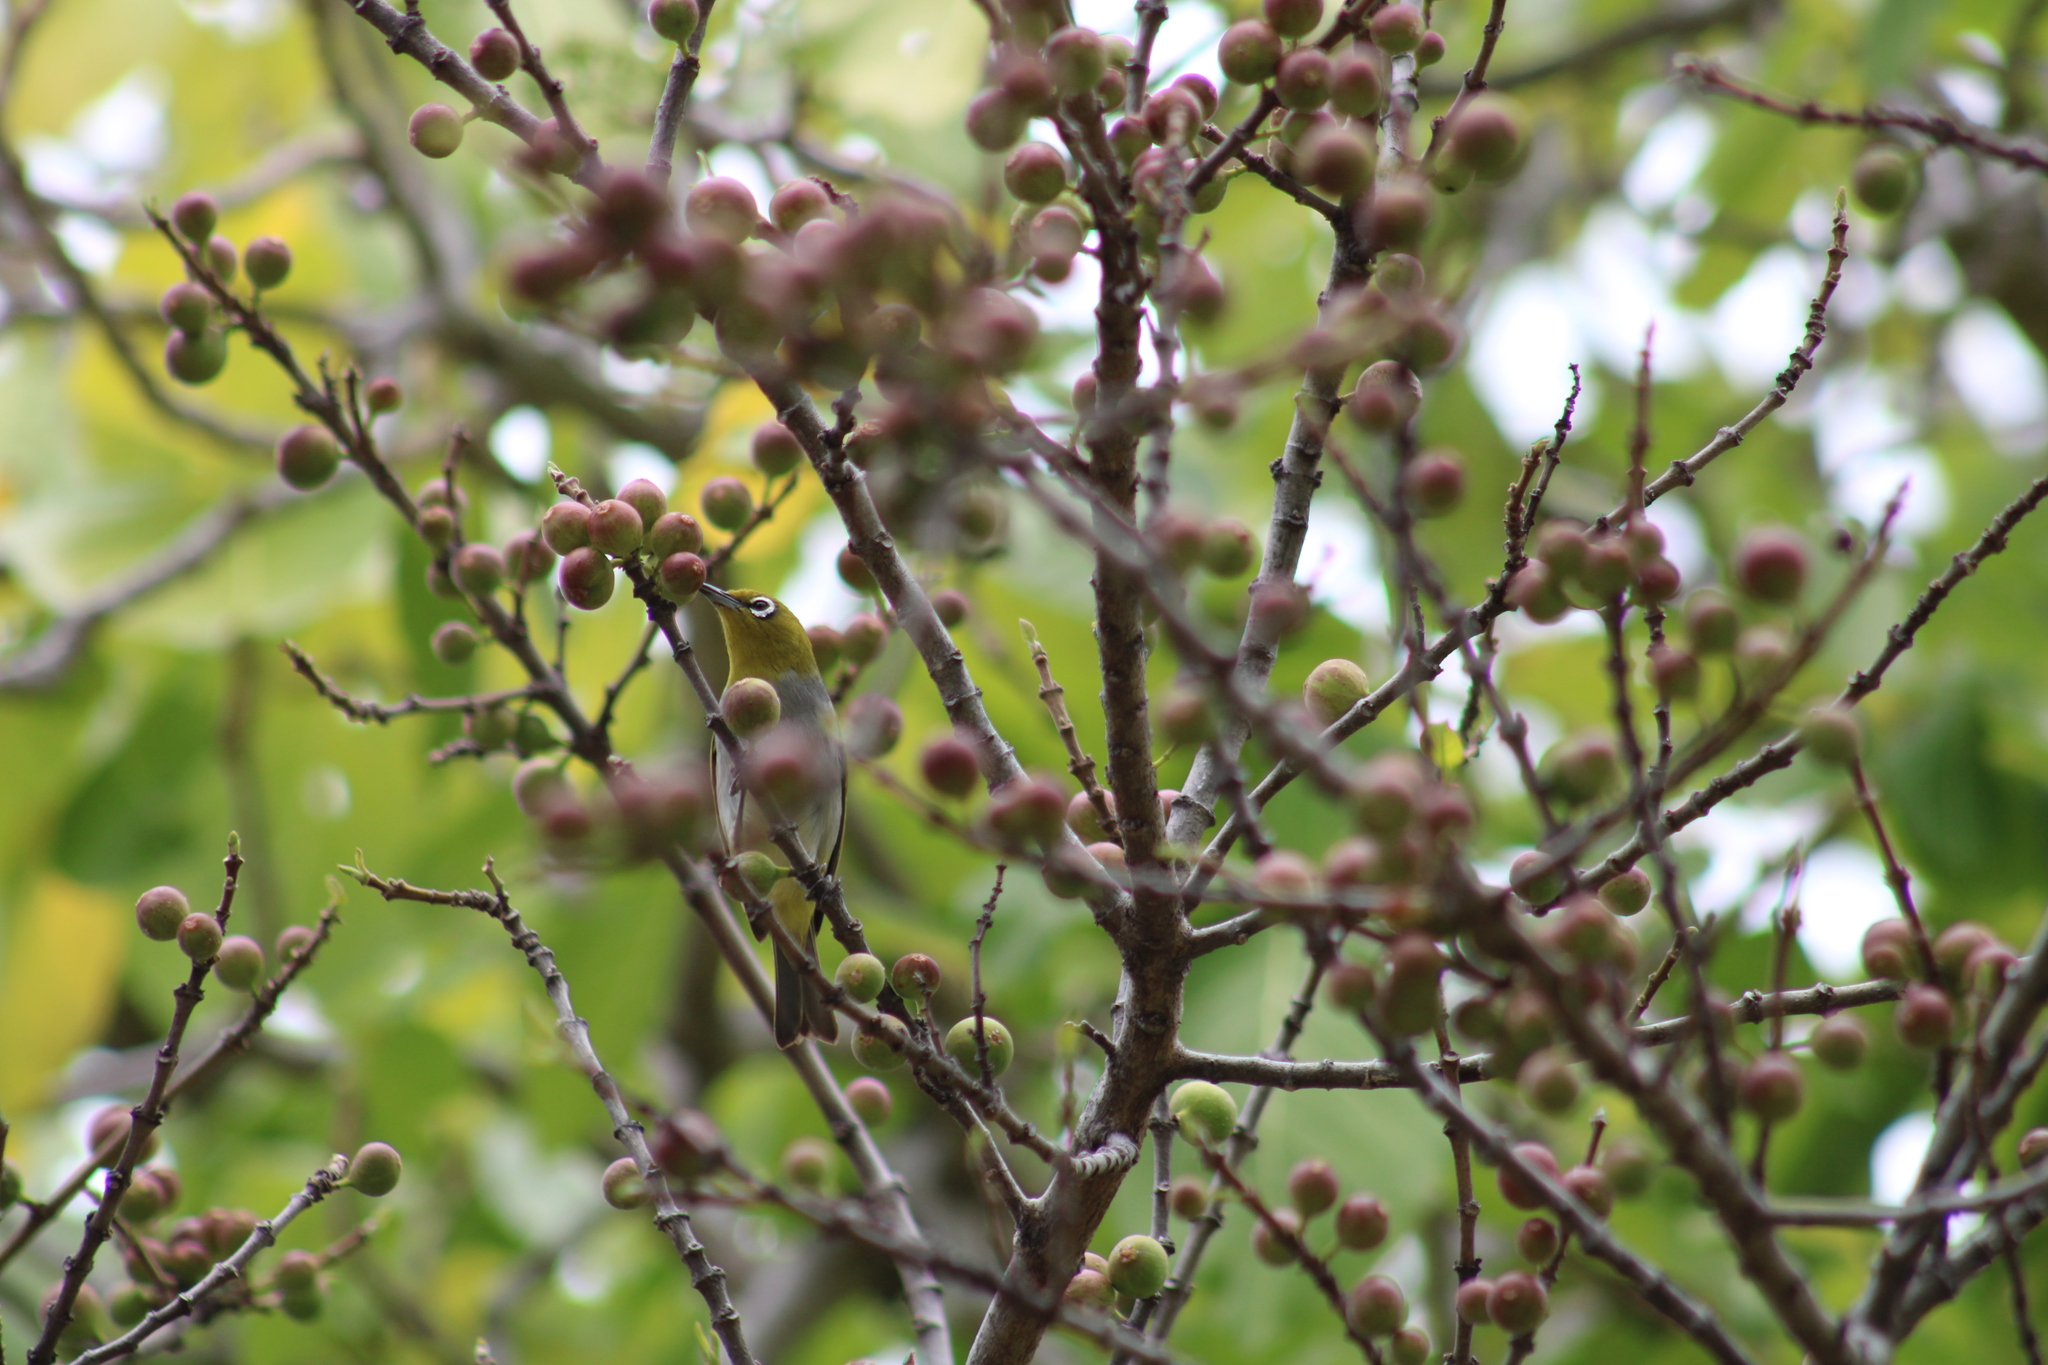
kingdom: Animalia
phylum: Chordata
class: Aves
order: Passeriformes
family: Zosteropidae
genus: Zosterops
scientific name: Zosterops lateralis
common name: Silvereye
